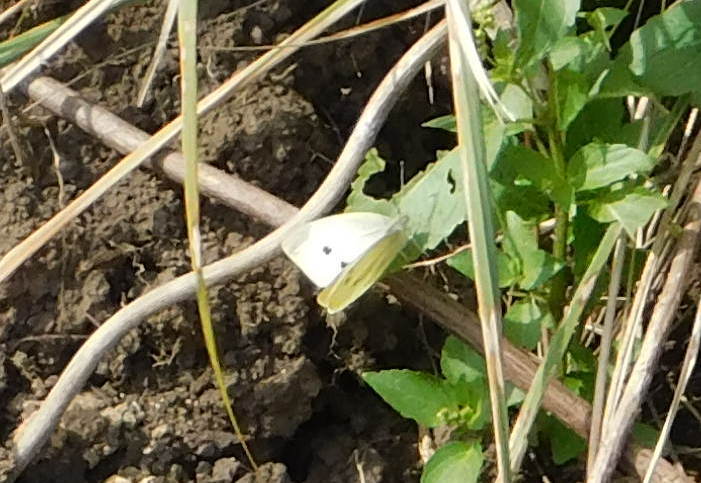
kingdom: Animalia
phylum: Arthropoda
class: Insecta
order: Lepidoptera
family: Pieridae
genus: Pieris
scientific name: Pieris rapae
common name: Small white
